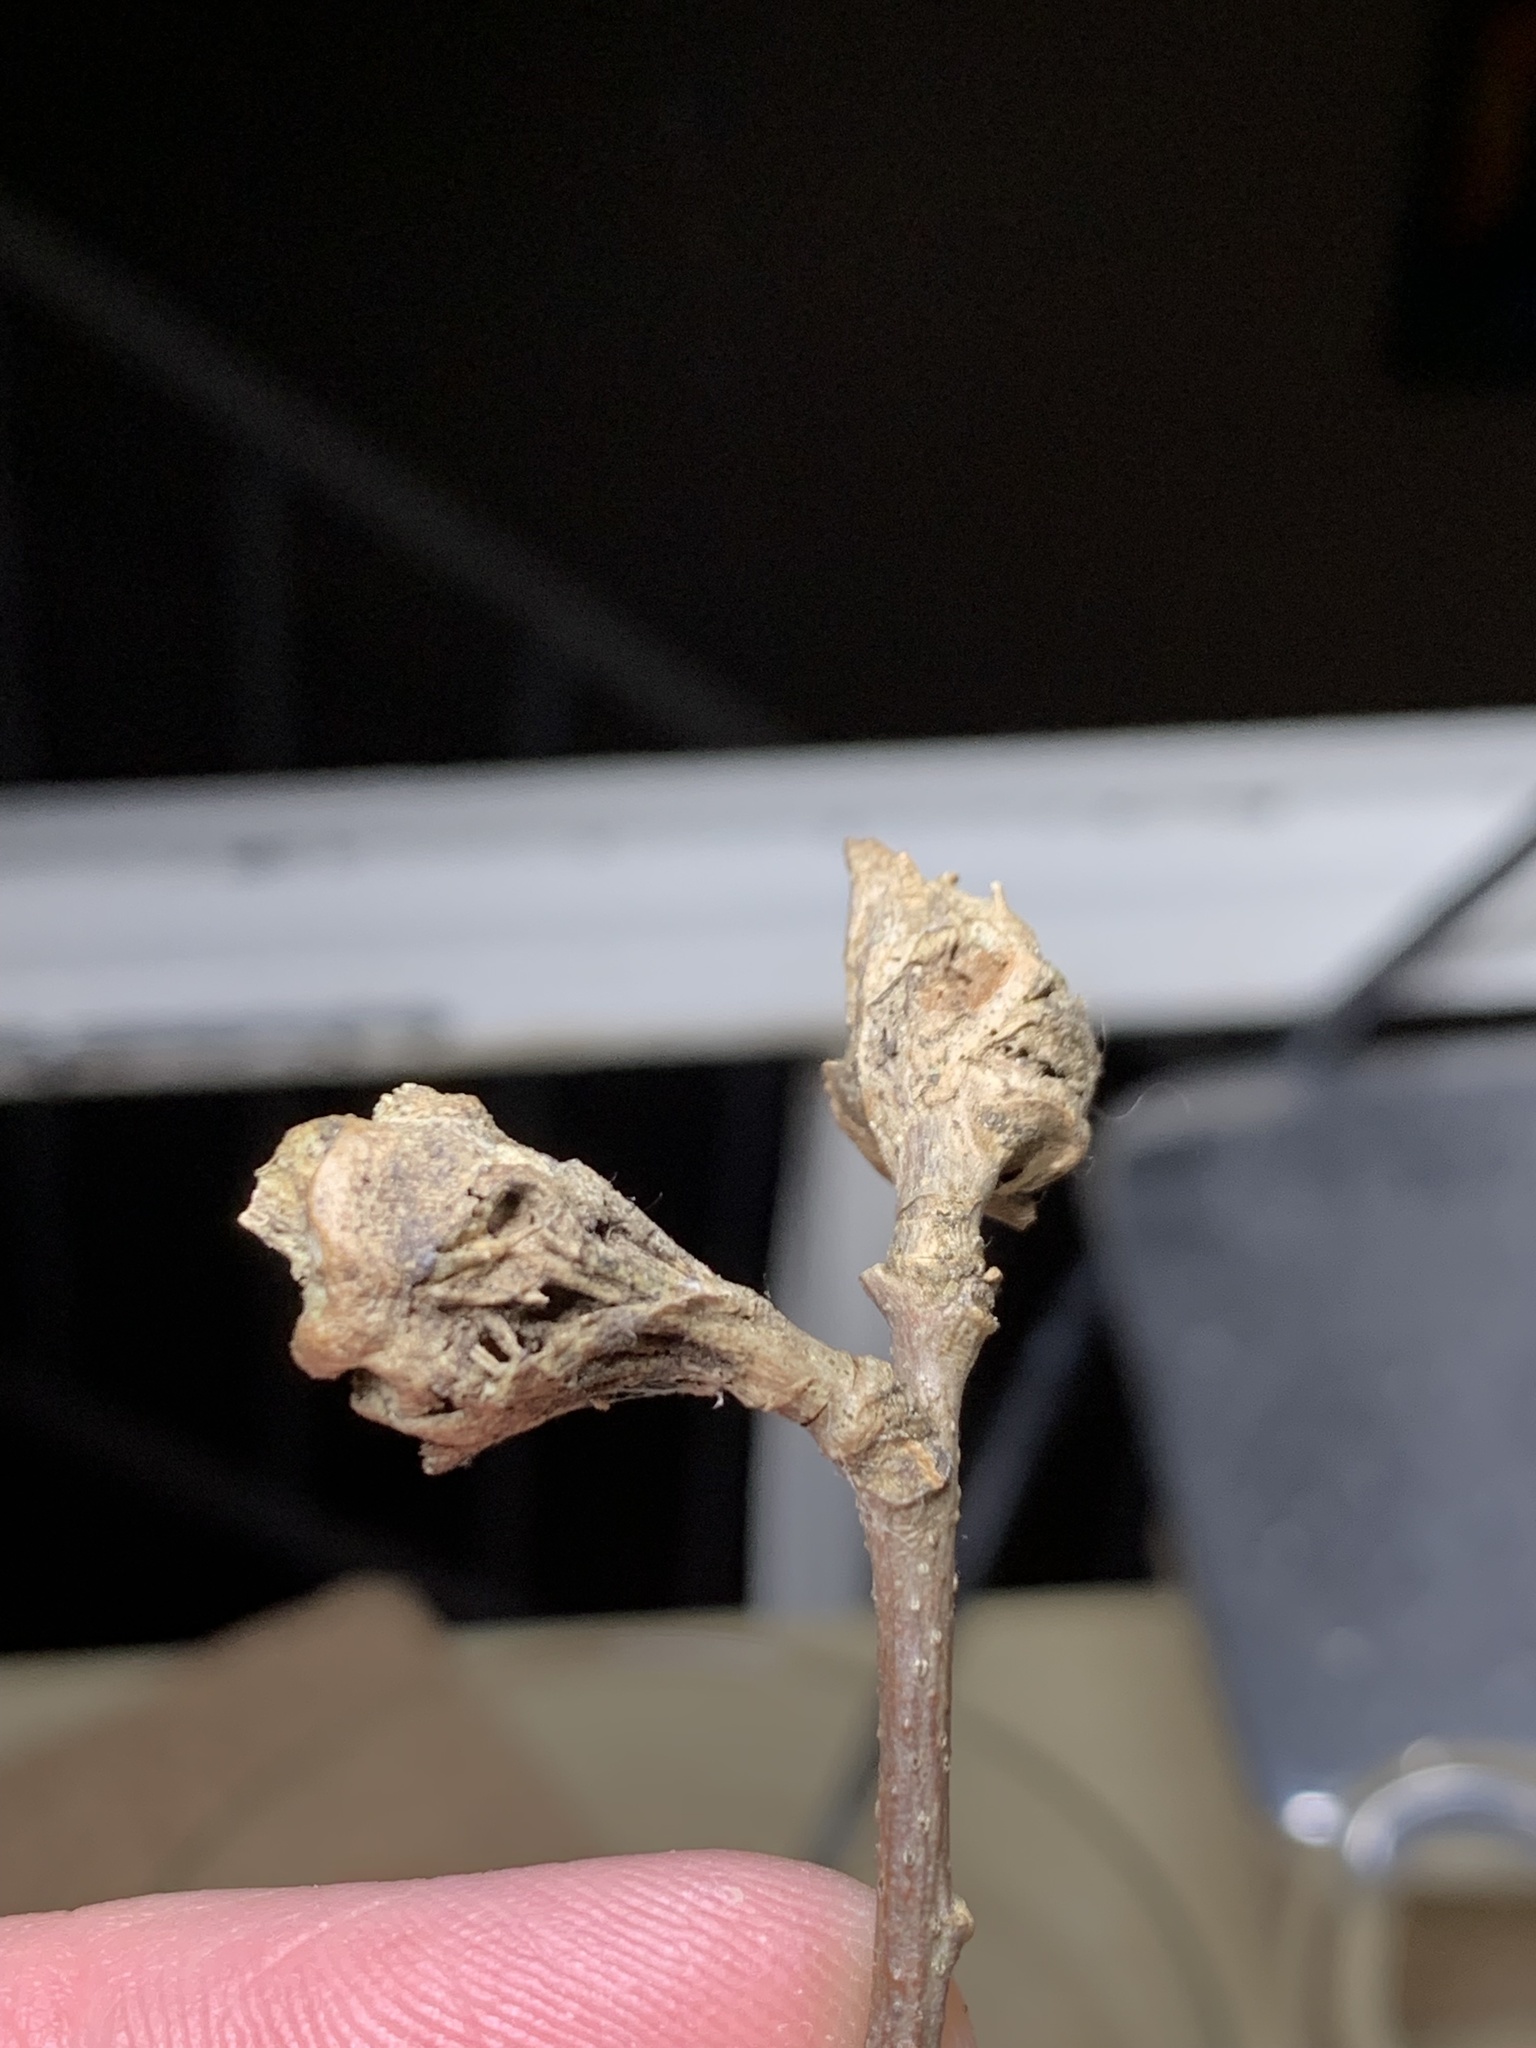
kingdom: Animalia
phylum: Arthropoda
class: Insecta
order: Hymenoptera
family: Cynipidae
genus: Dryocosmus
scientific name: Dryocosmus kuriphilus
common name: Asian chestnut gall wasp
